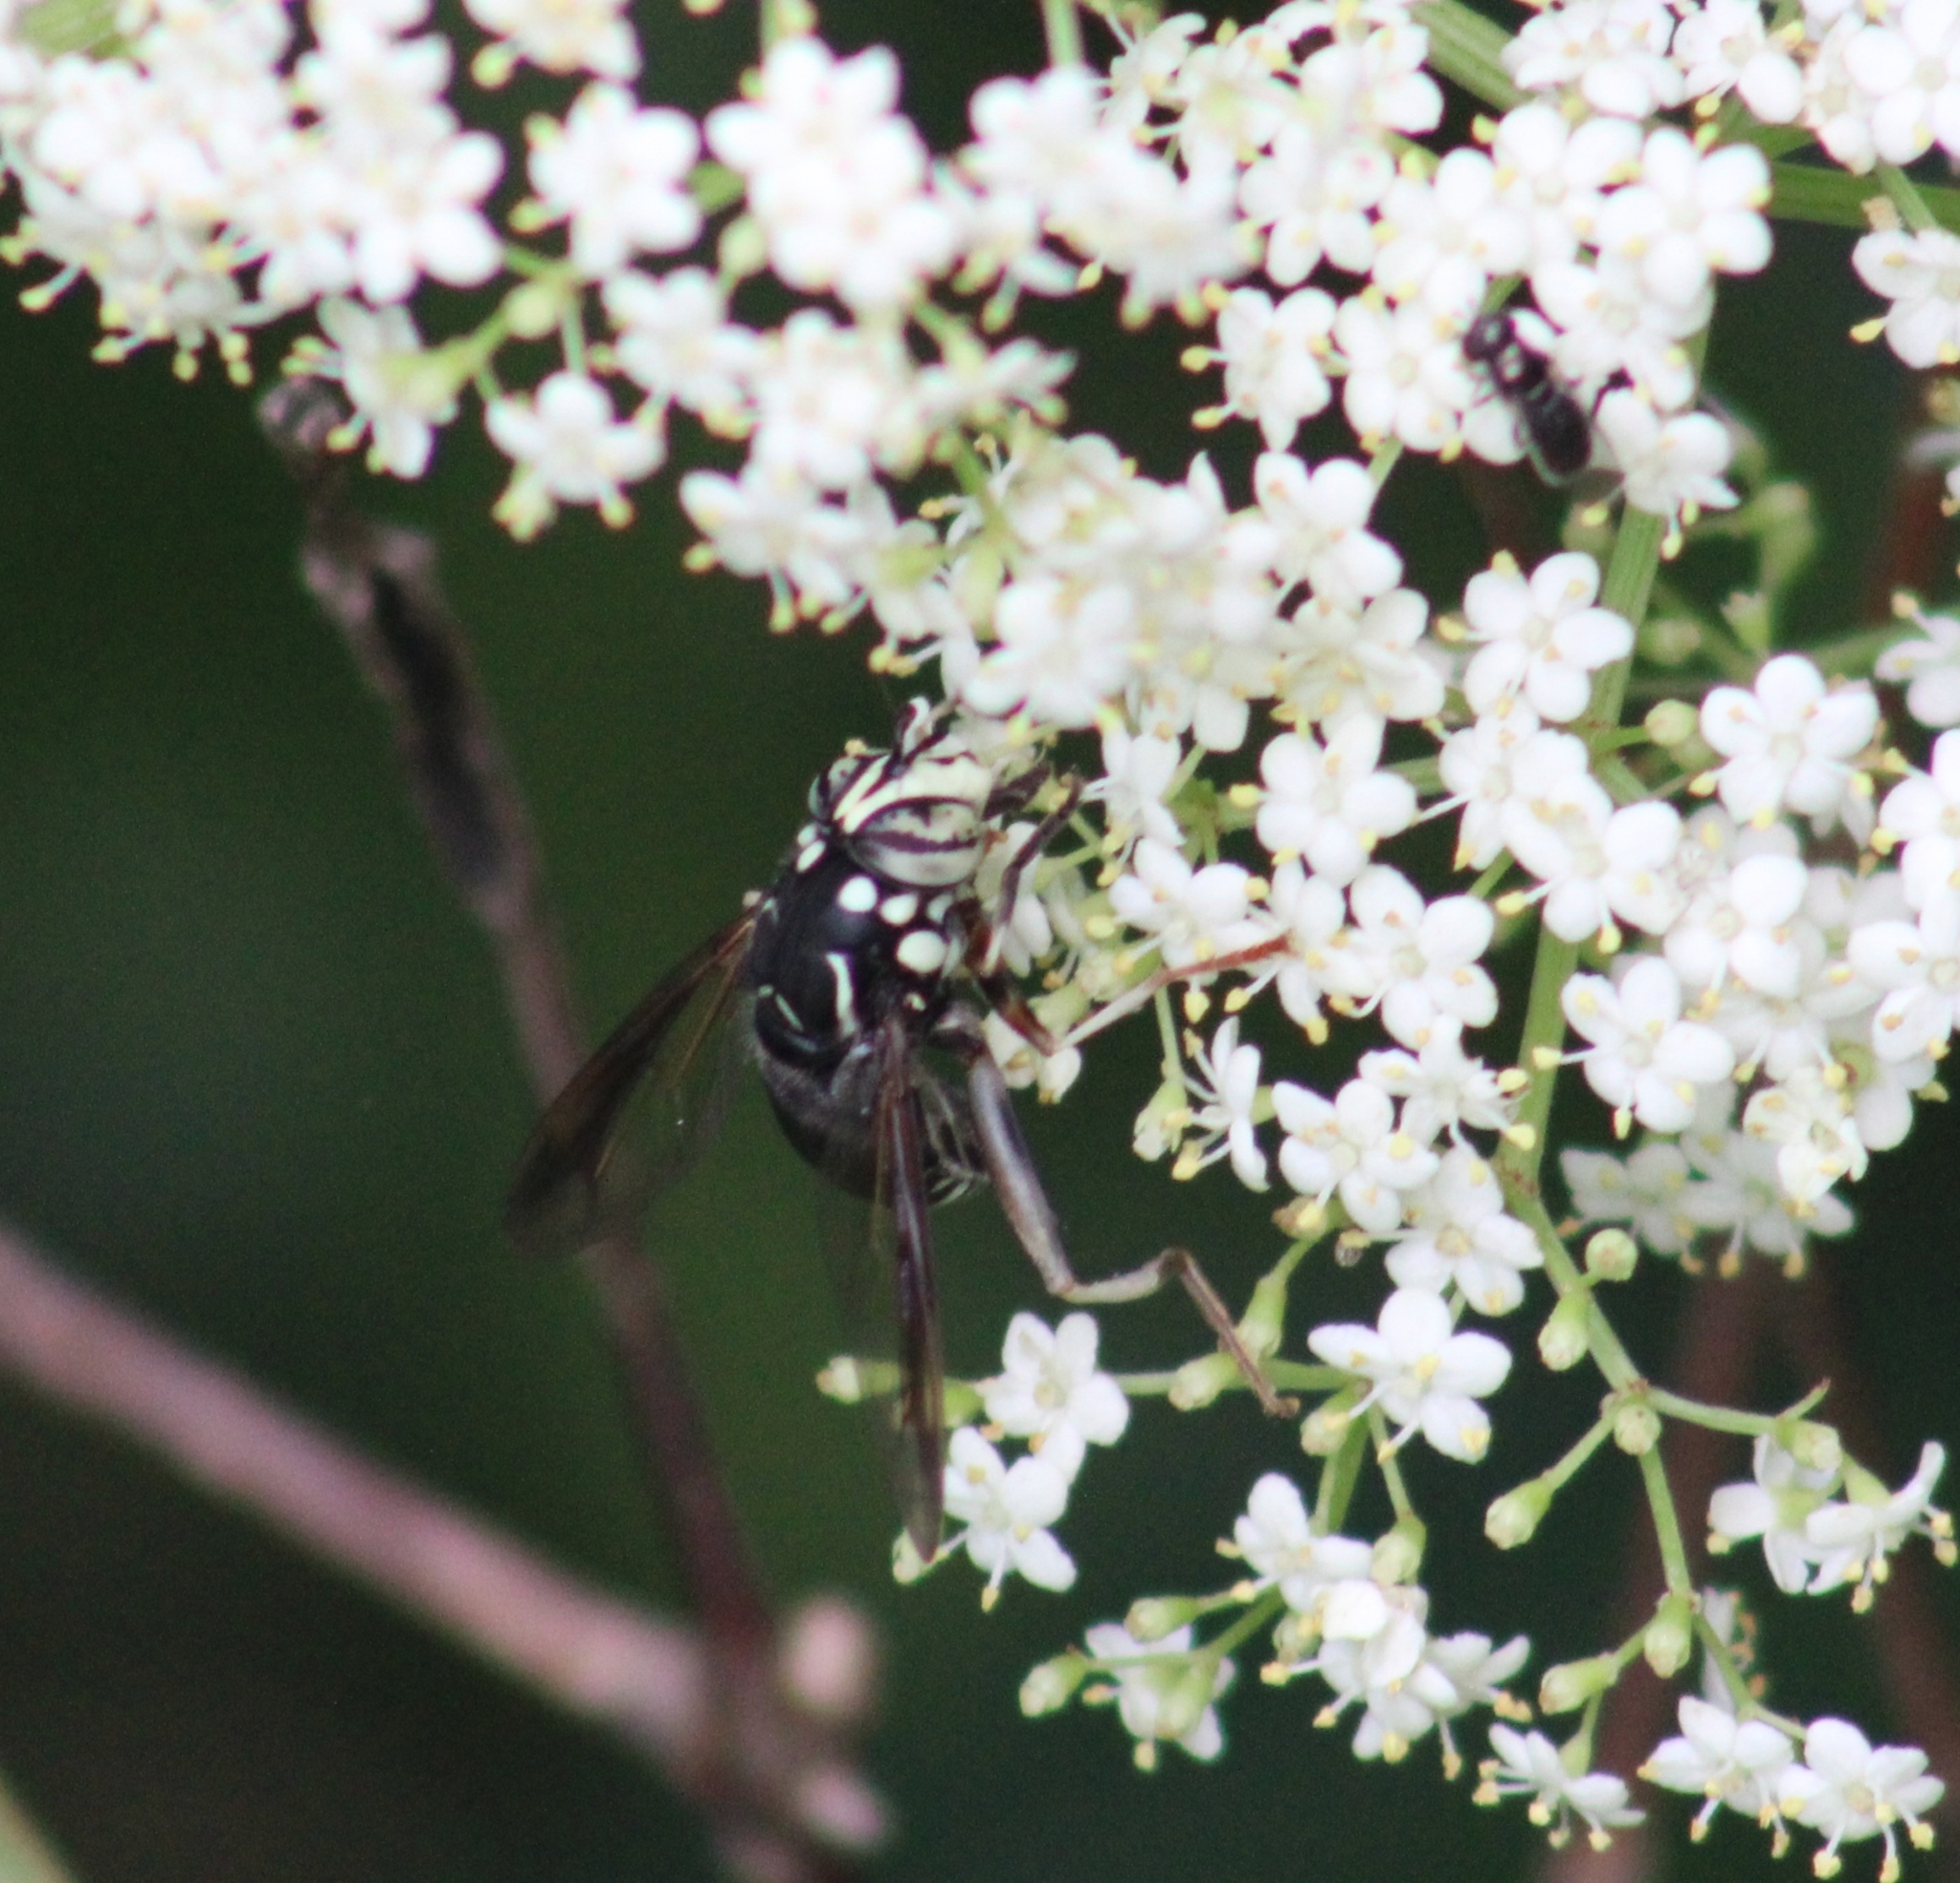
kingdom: Animalia
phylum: Arthropoda
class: Insecta
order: Diptera
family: Syrphidae
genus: Spilomyia
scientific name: Spilomyia fusca
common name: Bald-faced hornet fly
